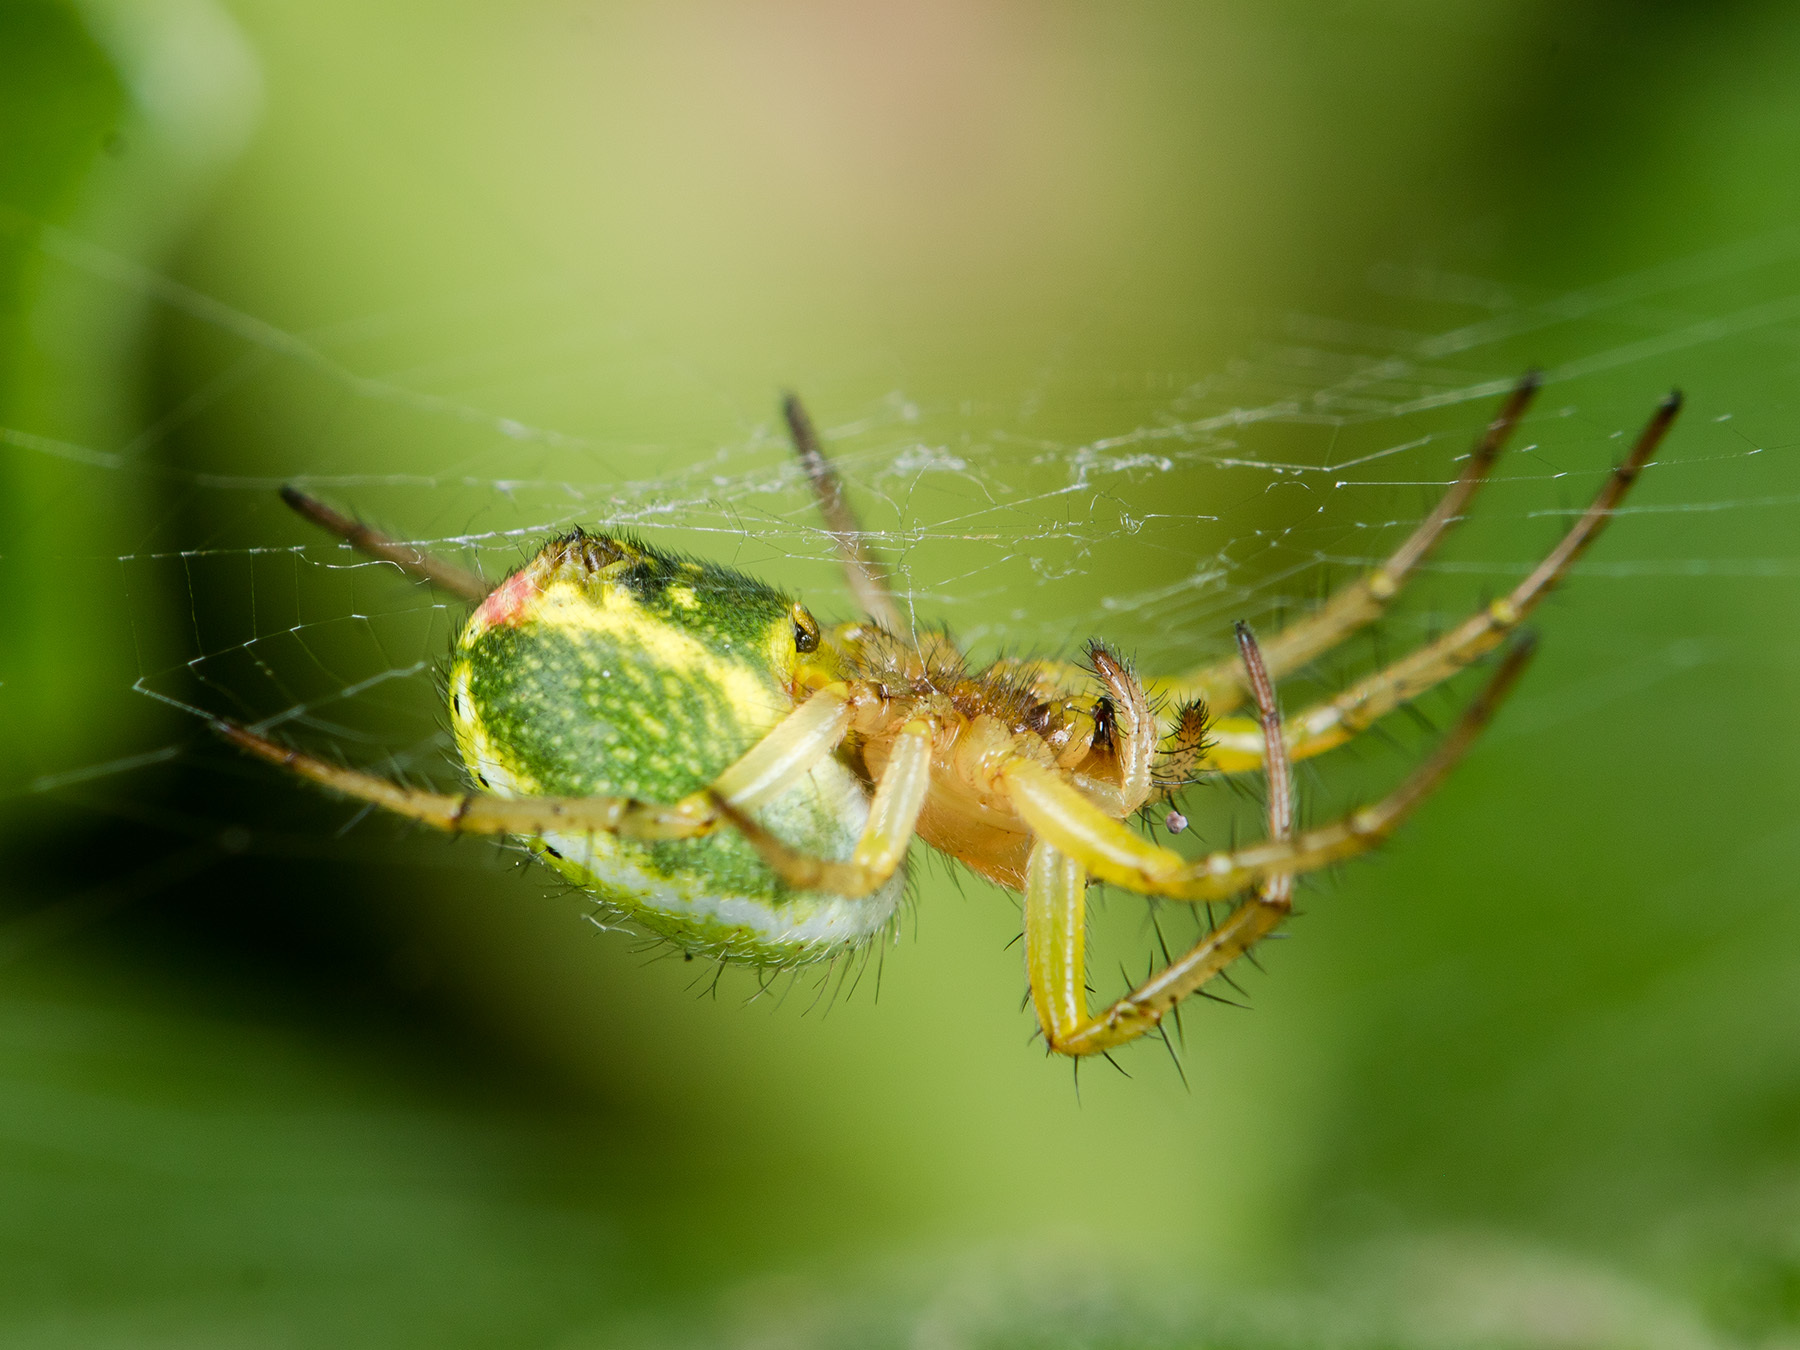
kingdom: Animalia
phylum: Arthropoda
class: Arachnida
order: Araneae
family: Araneidae
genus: Araniella
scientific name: Araniella villanii
